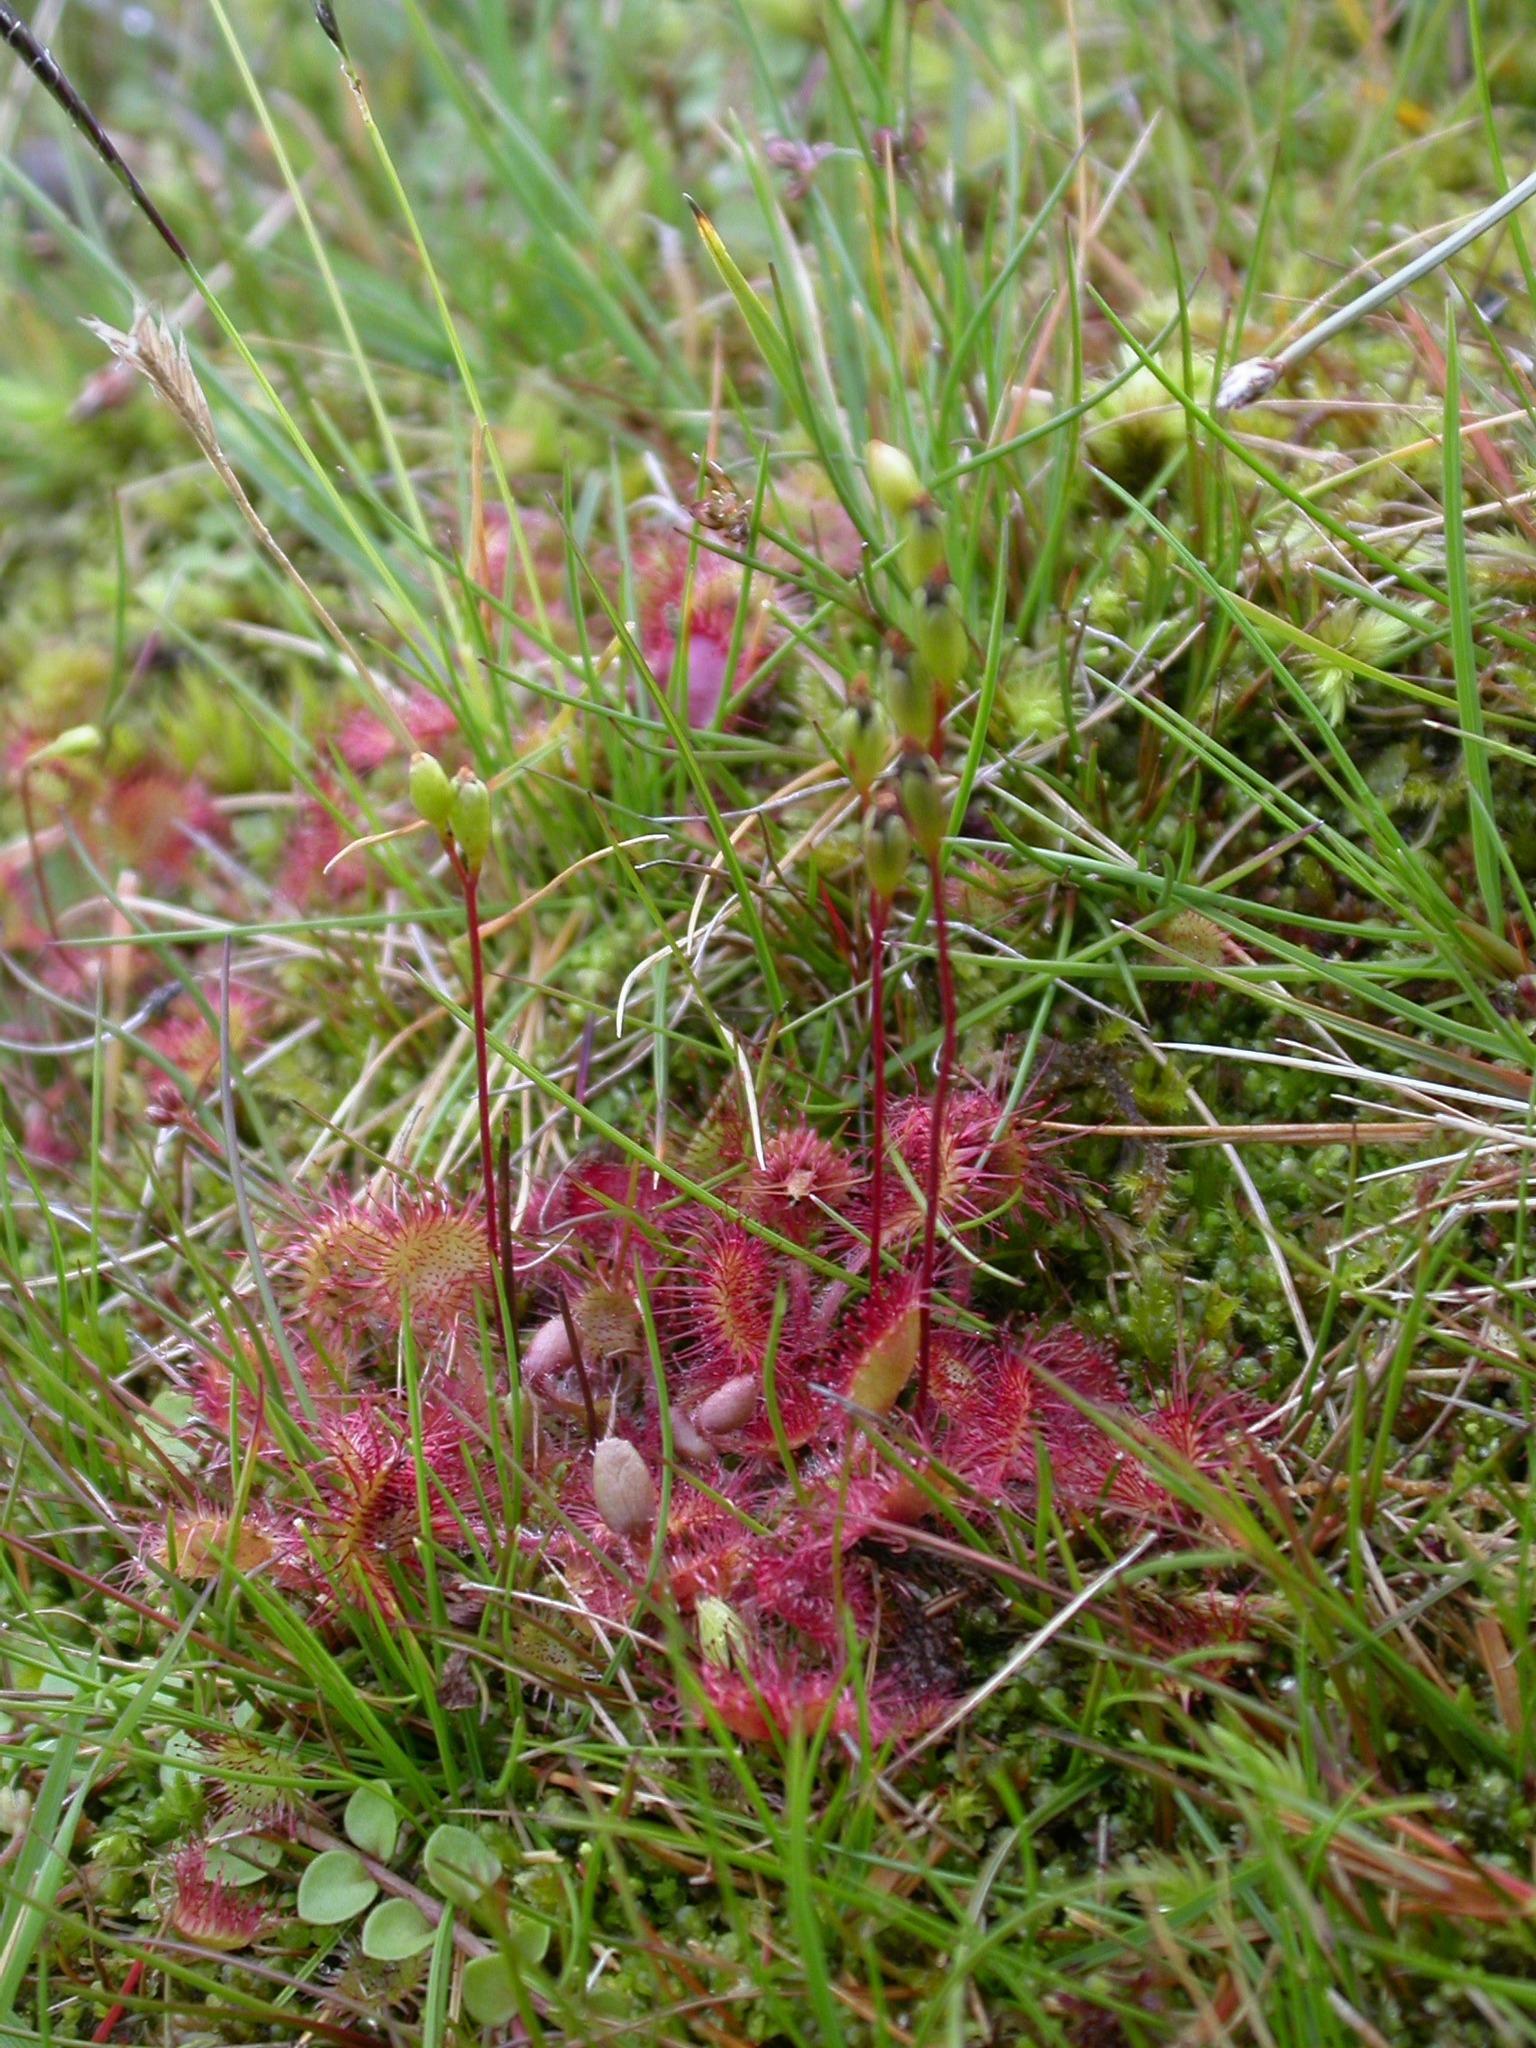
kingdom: Plantae
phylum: Tracheophyta
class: Magnoliopsida
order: Caryophyllales
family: Droseraceae
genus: Drosera
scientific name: Drosera rotundifolia
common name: Round-leaved sundew
